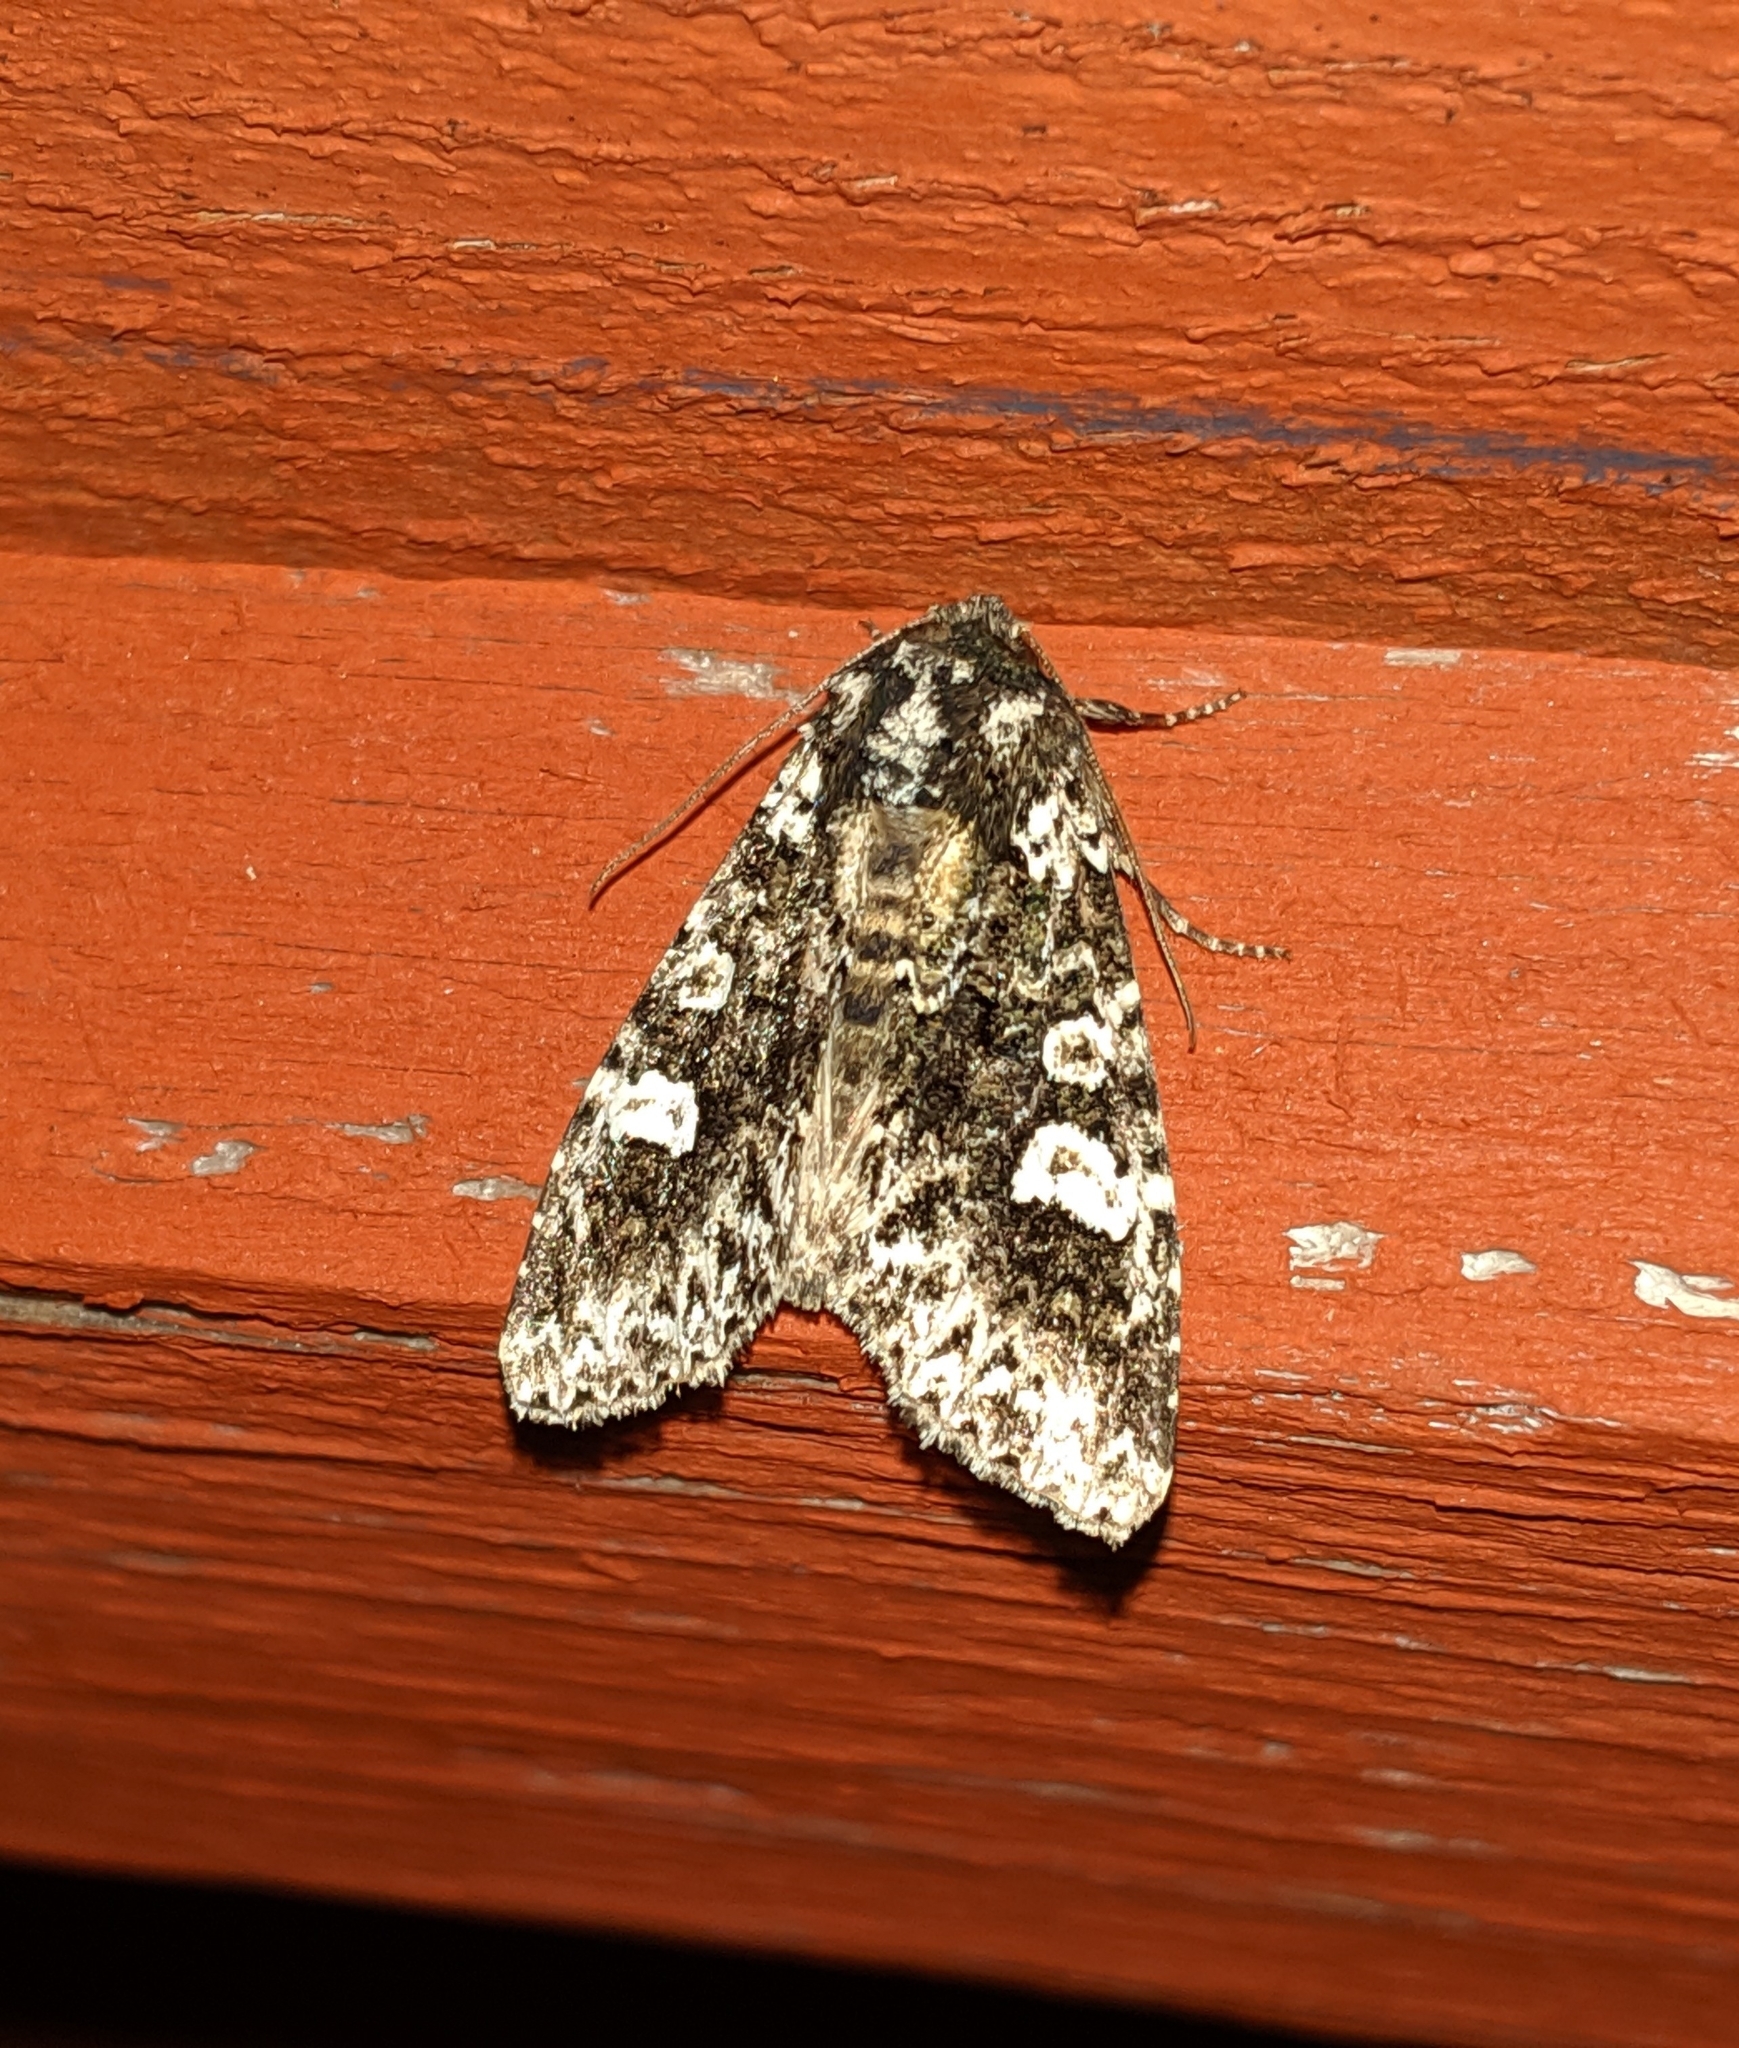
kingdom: Animalia
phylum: Arthropoda
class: Insecta
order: Lepidoptera
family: Noctuidae
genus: Melanchra
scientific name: Melanchra adjuncta
